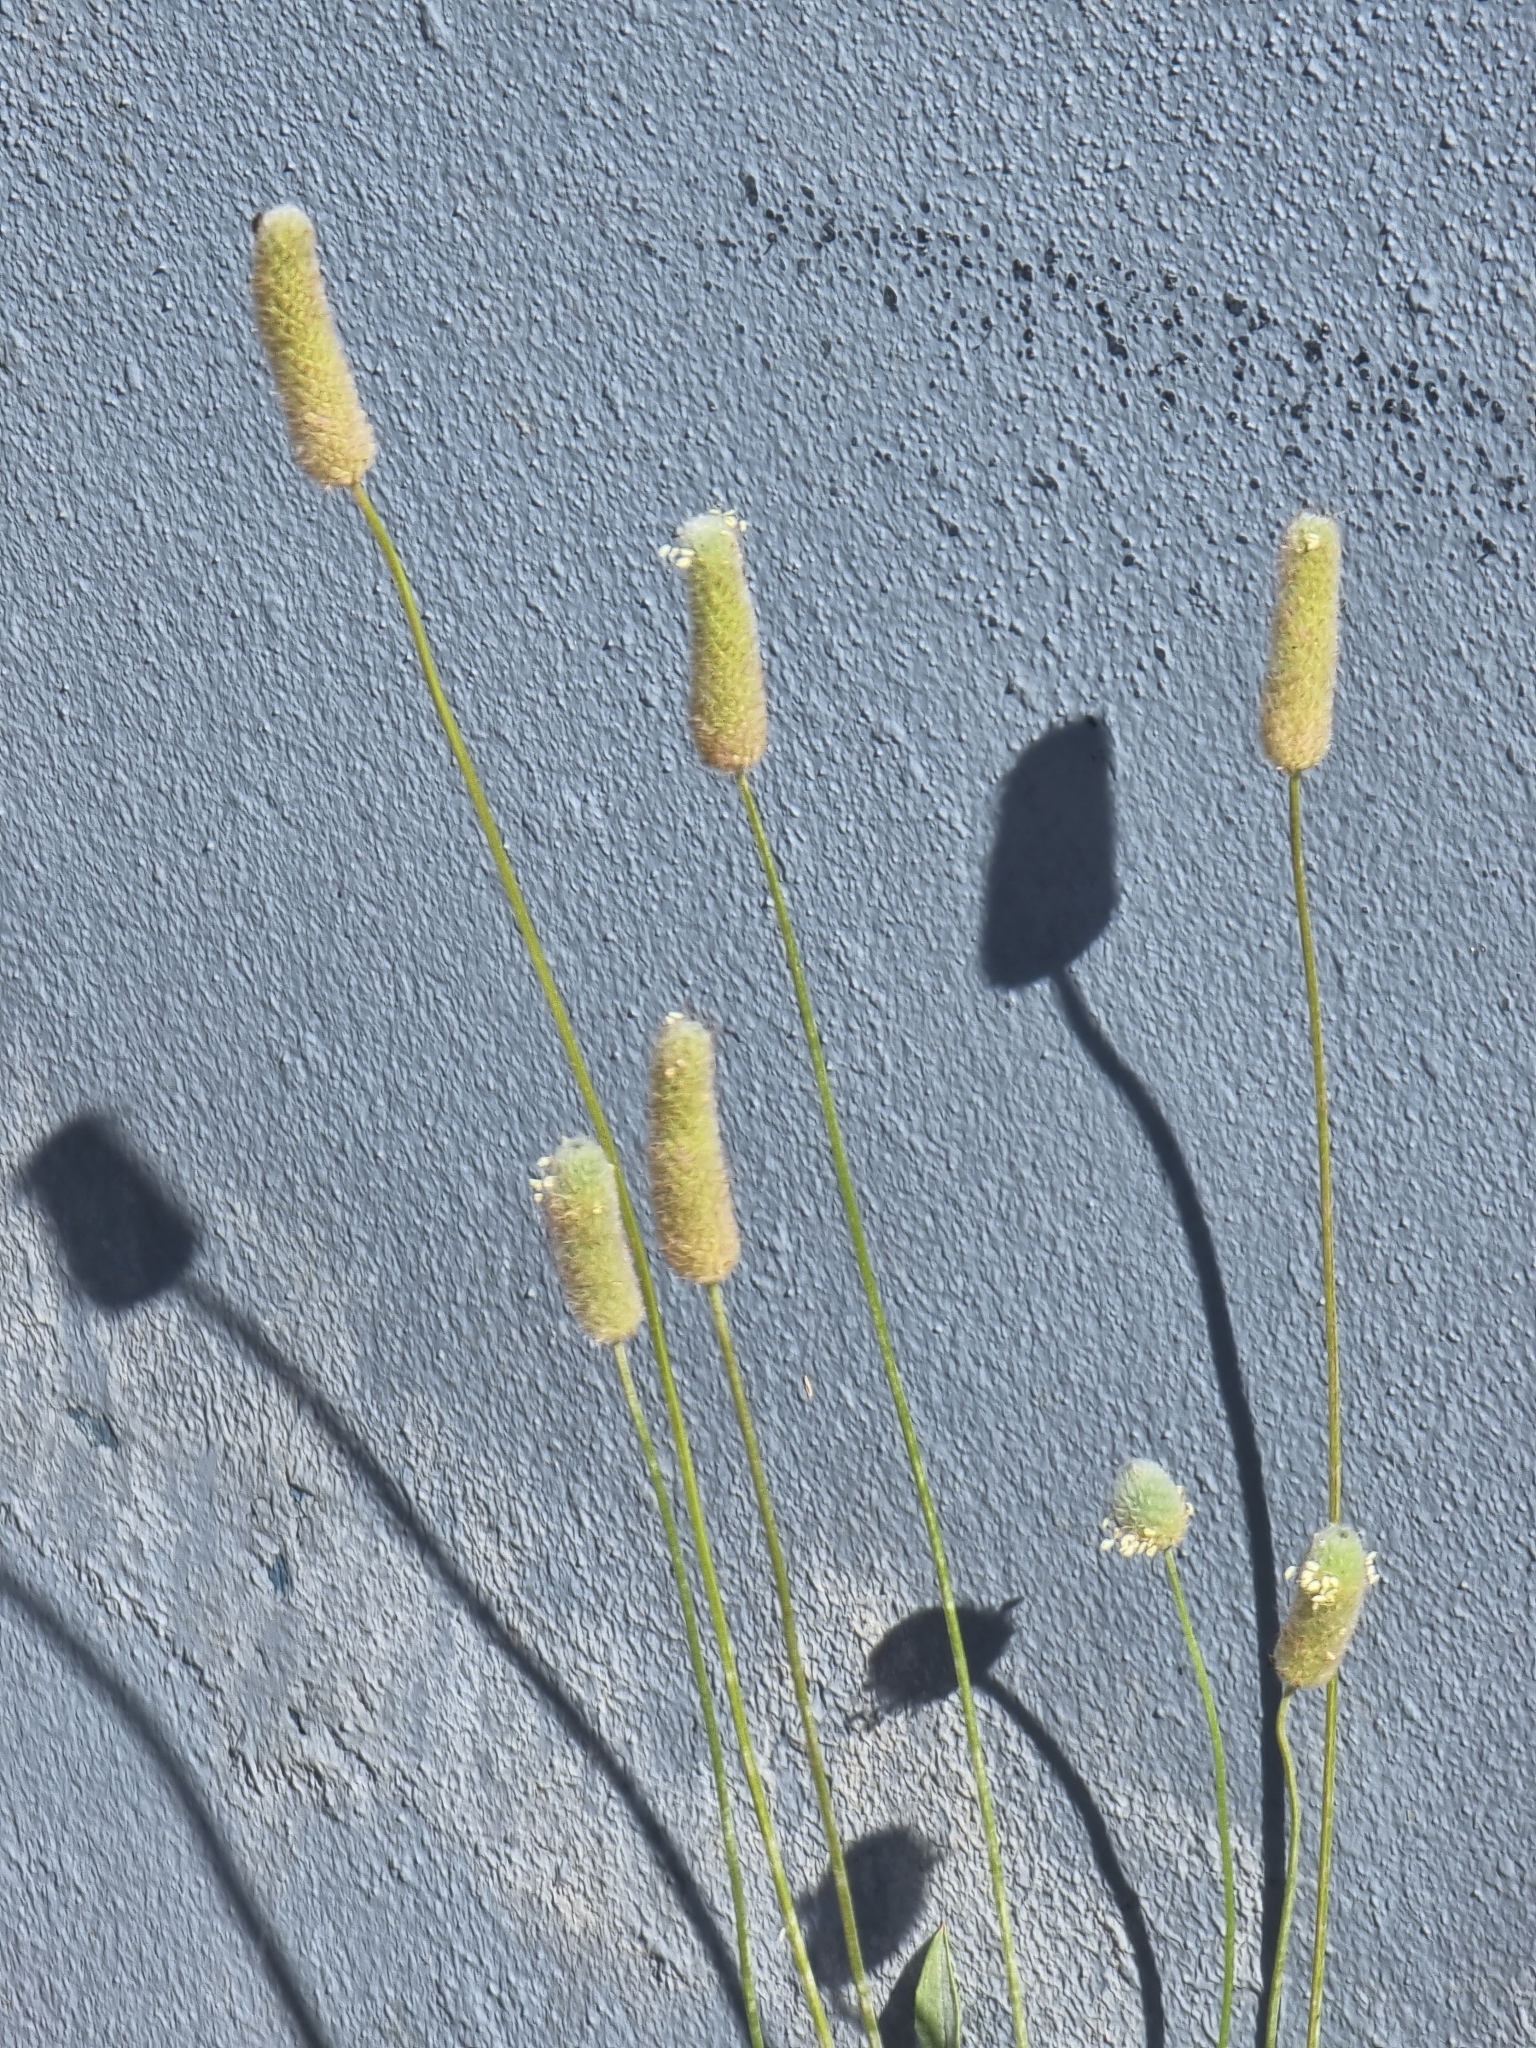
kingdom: Plantae
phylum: Tracheophyta
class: Magnoliopsida
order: Lamiales
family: Plantaginaceae
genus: Plantago
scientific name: Plantago lanceolata
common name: Ribwort plantain
